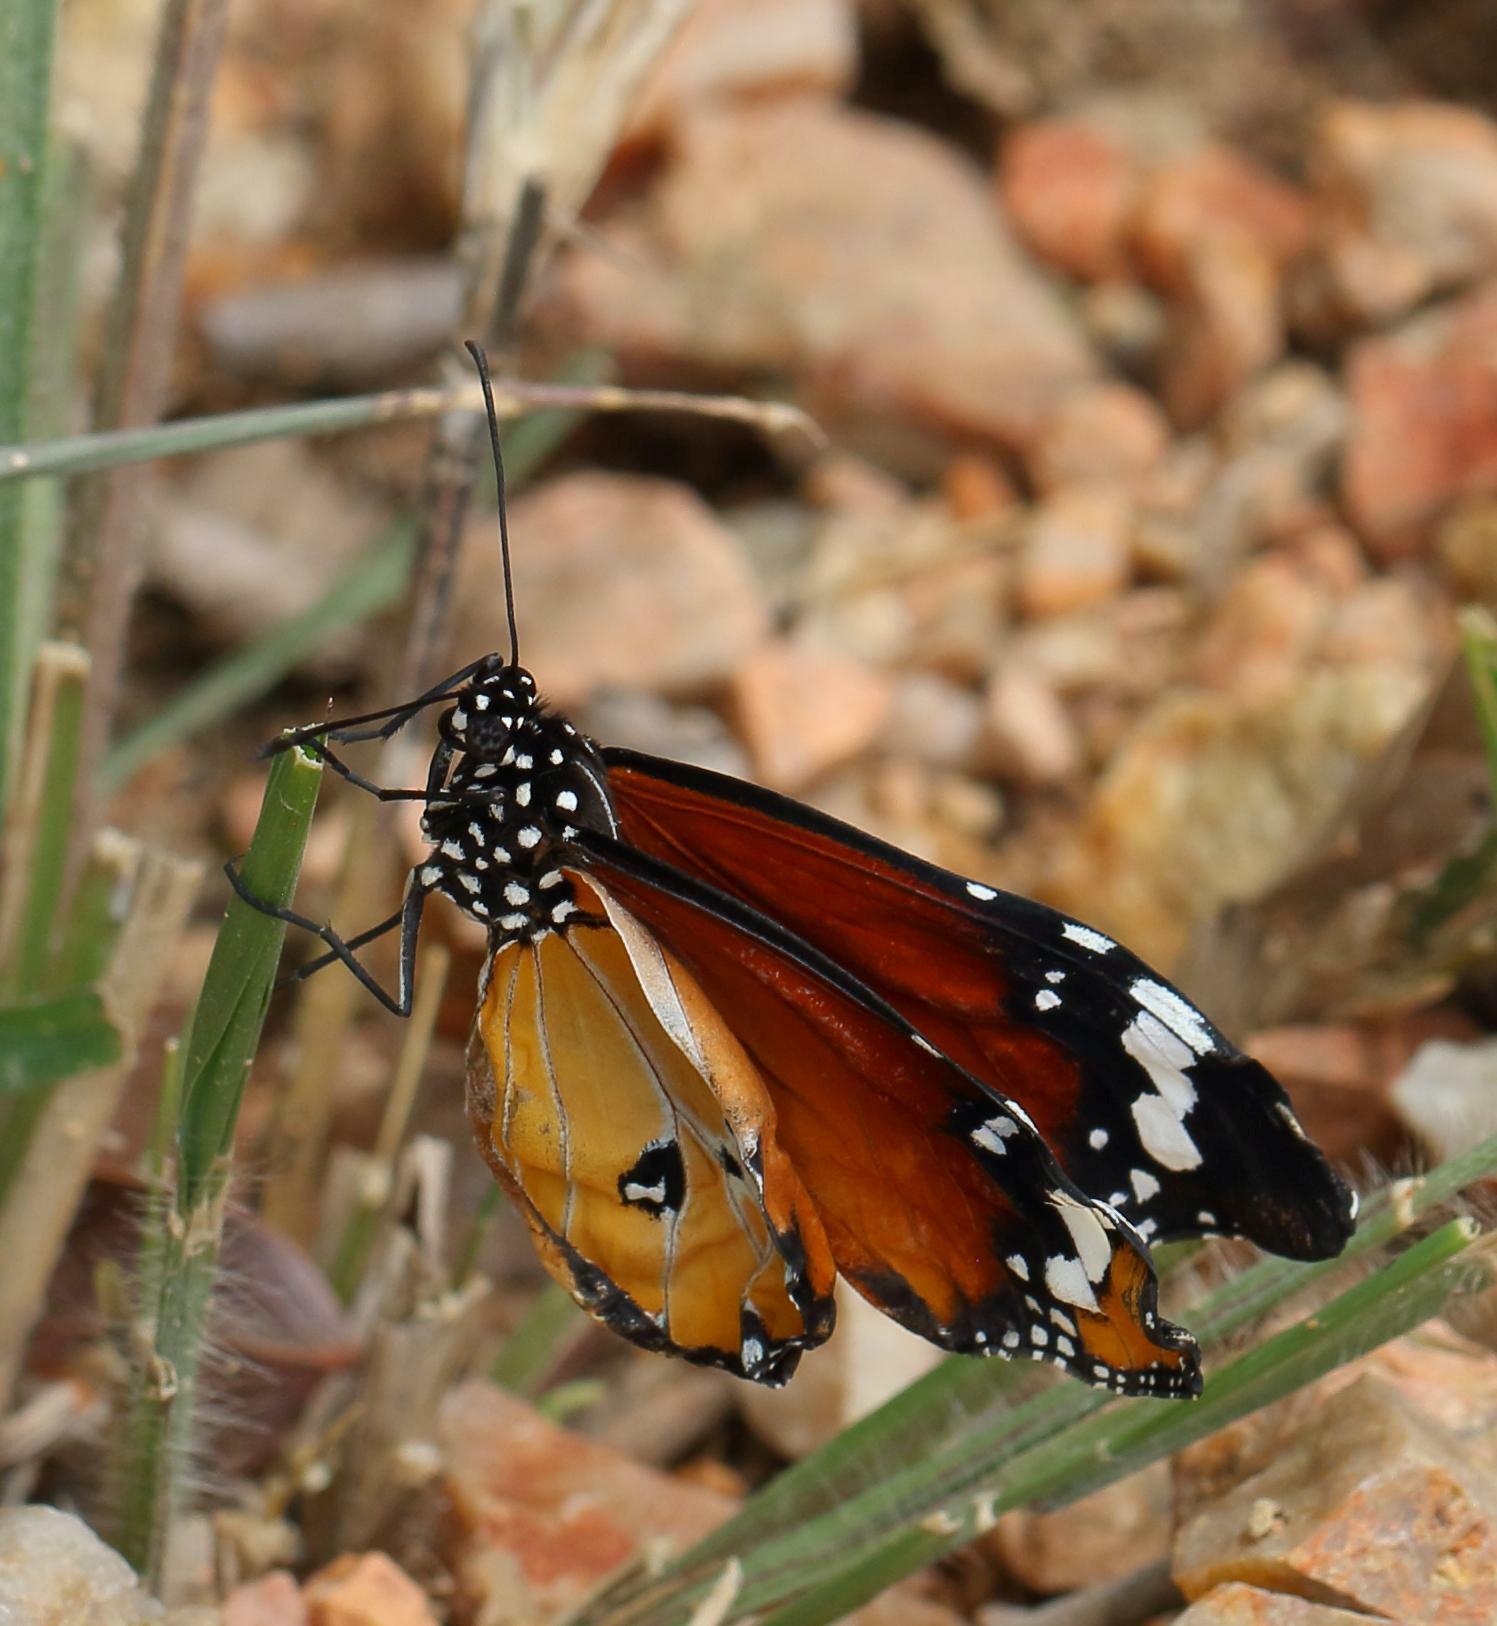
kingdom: Animalia
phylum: Arthropoda
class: Insecta
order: Lepidoptera
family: Nymphalidae
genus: Danaus
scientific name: Danaus chrysippus
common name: Plain tiger
